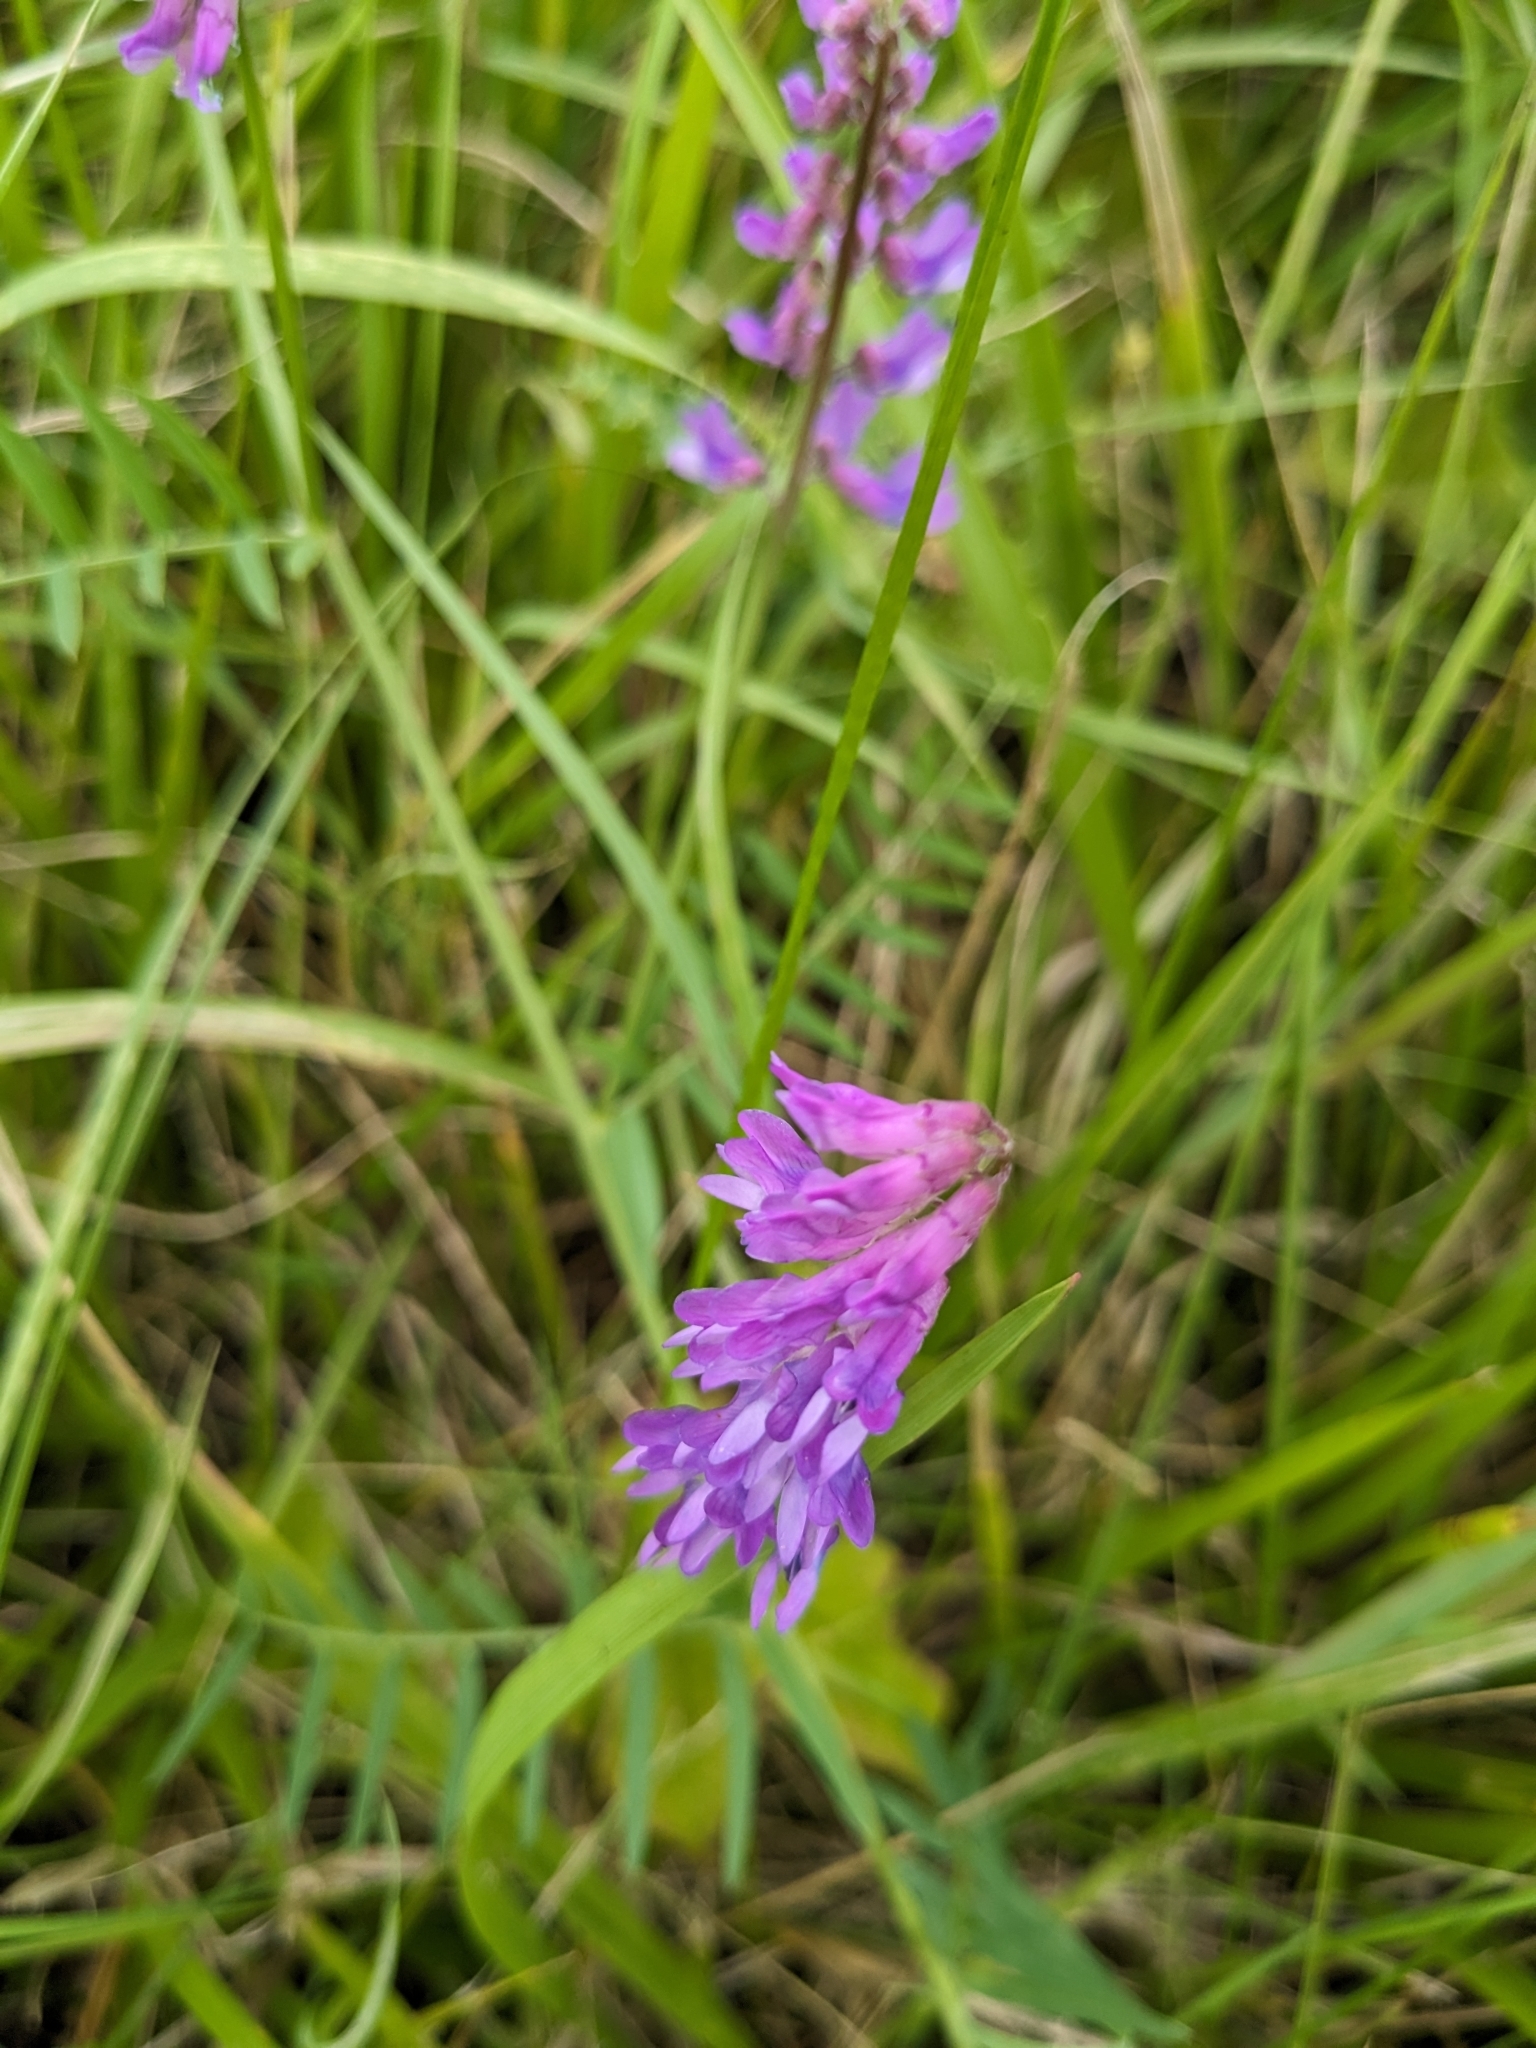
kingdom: Plantae
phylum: Tracheophyta
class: Magnoliopsida
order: Fabales
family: Fabaceae
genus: Vicia
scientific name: Vicia cracca
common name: Bird vetch
